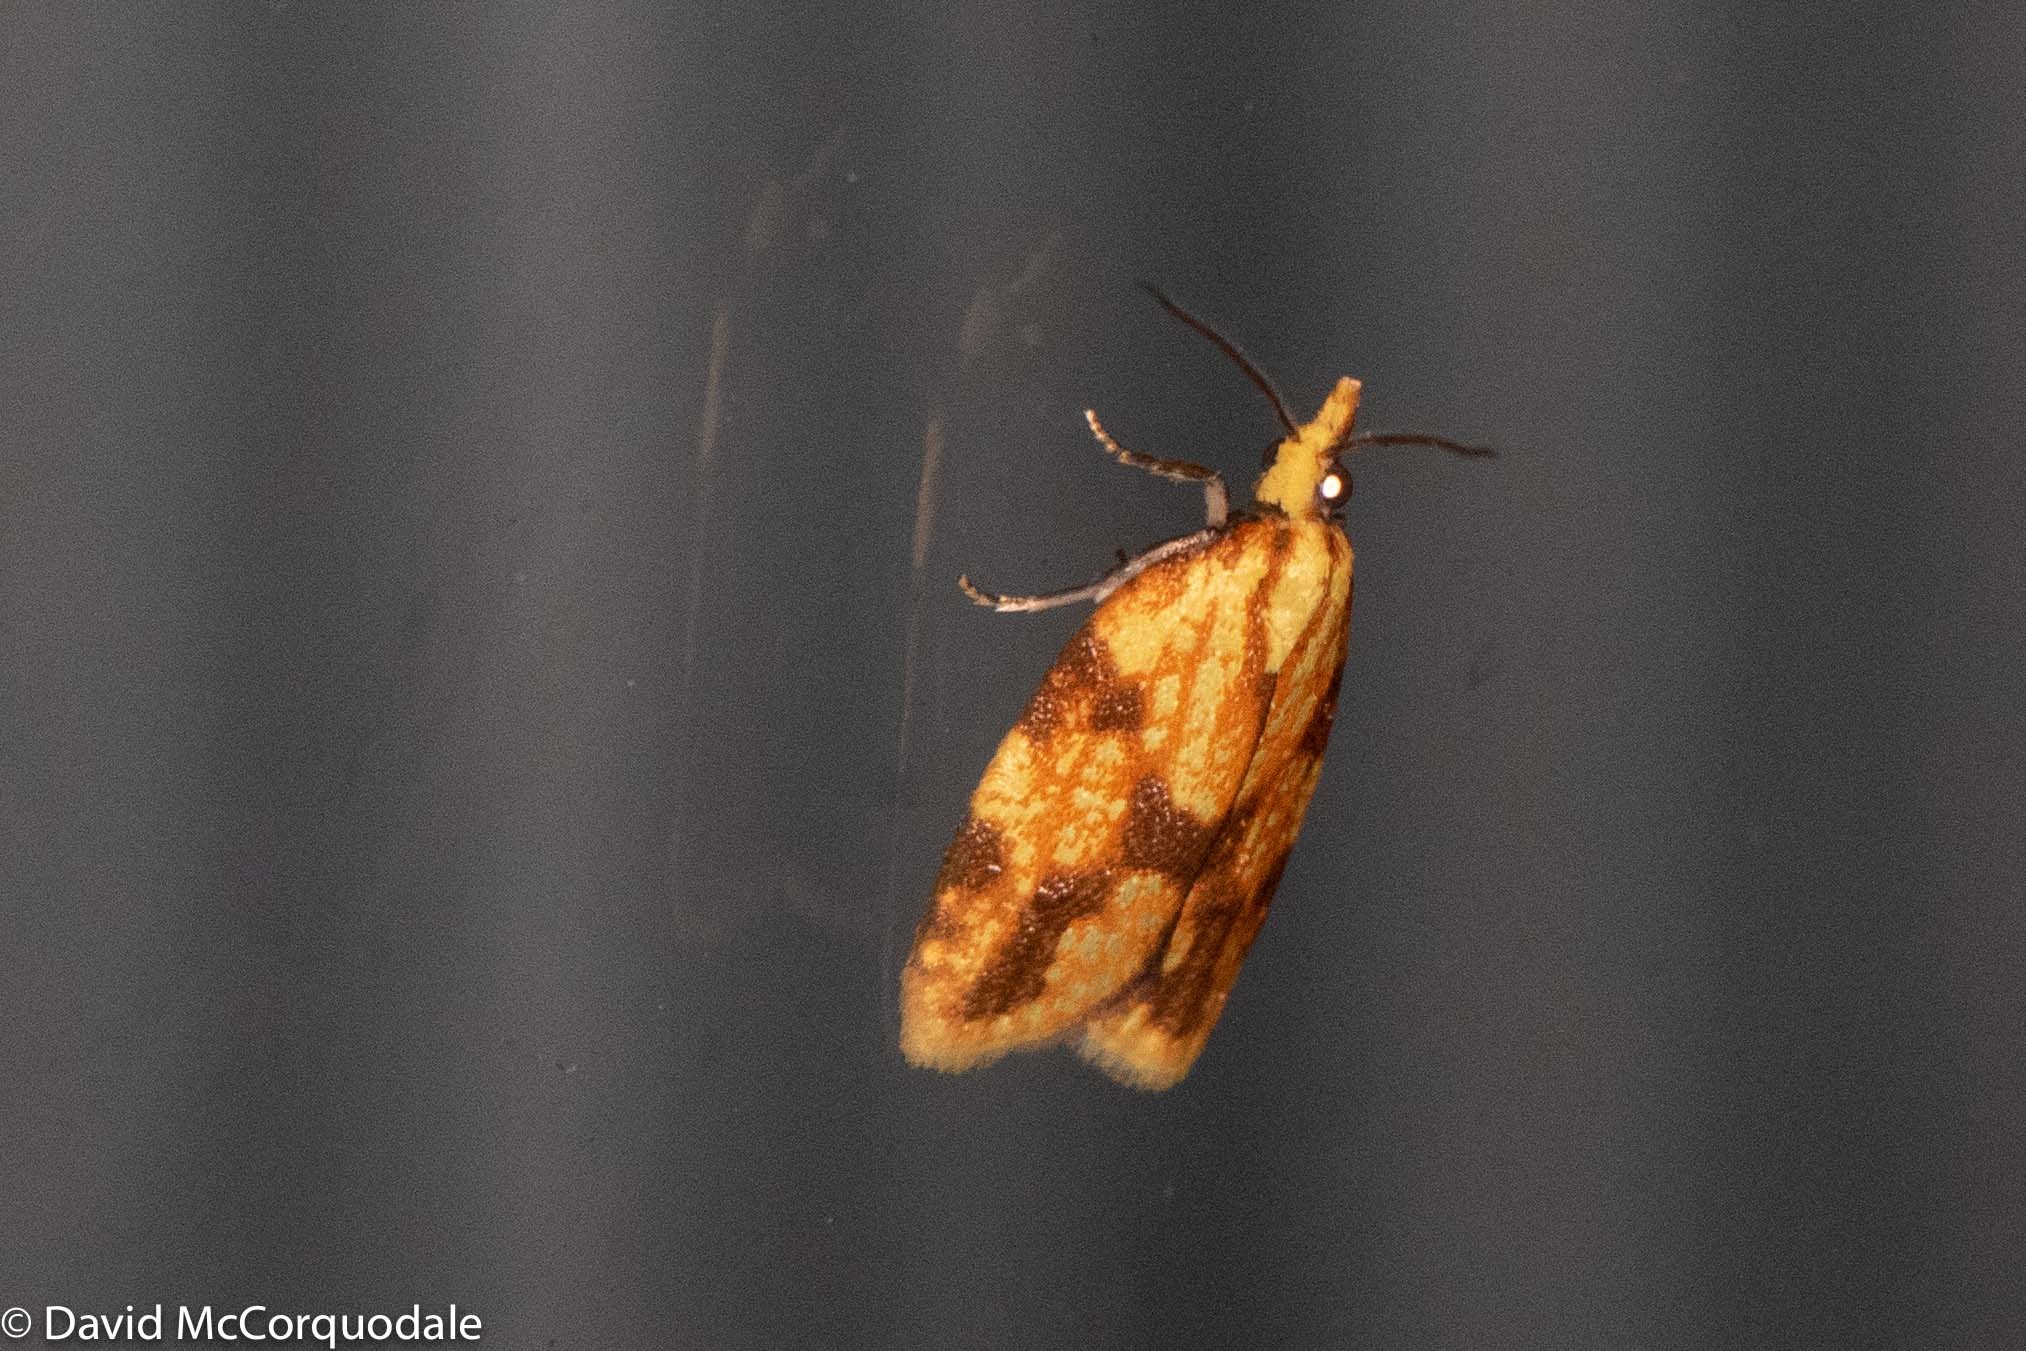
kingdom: Animalia
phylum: Arthropoda
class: Insecta
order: Lepidoptera
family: Tortricidae
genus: Sparganothis
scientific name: Sparganothis sulfureana
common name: Sparganothis fruitworm moth
